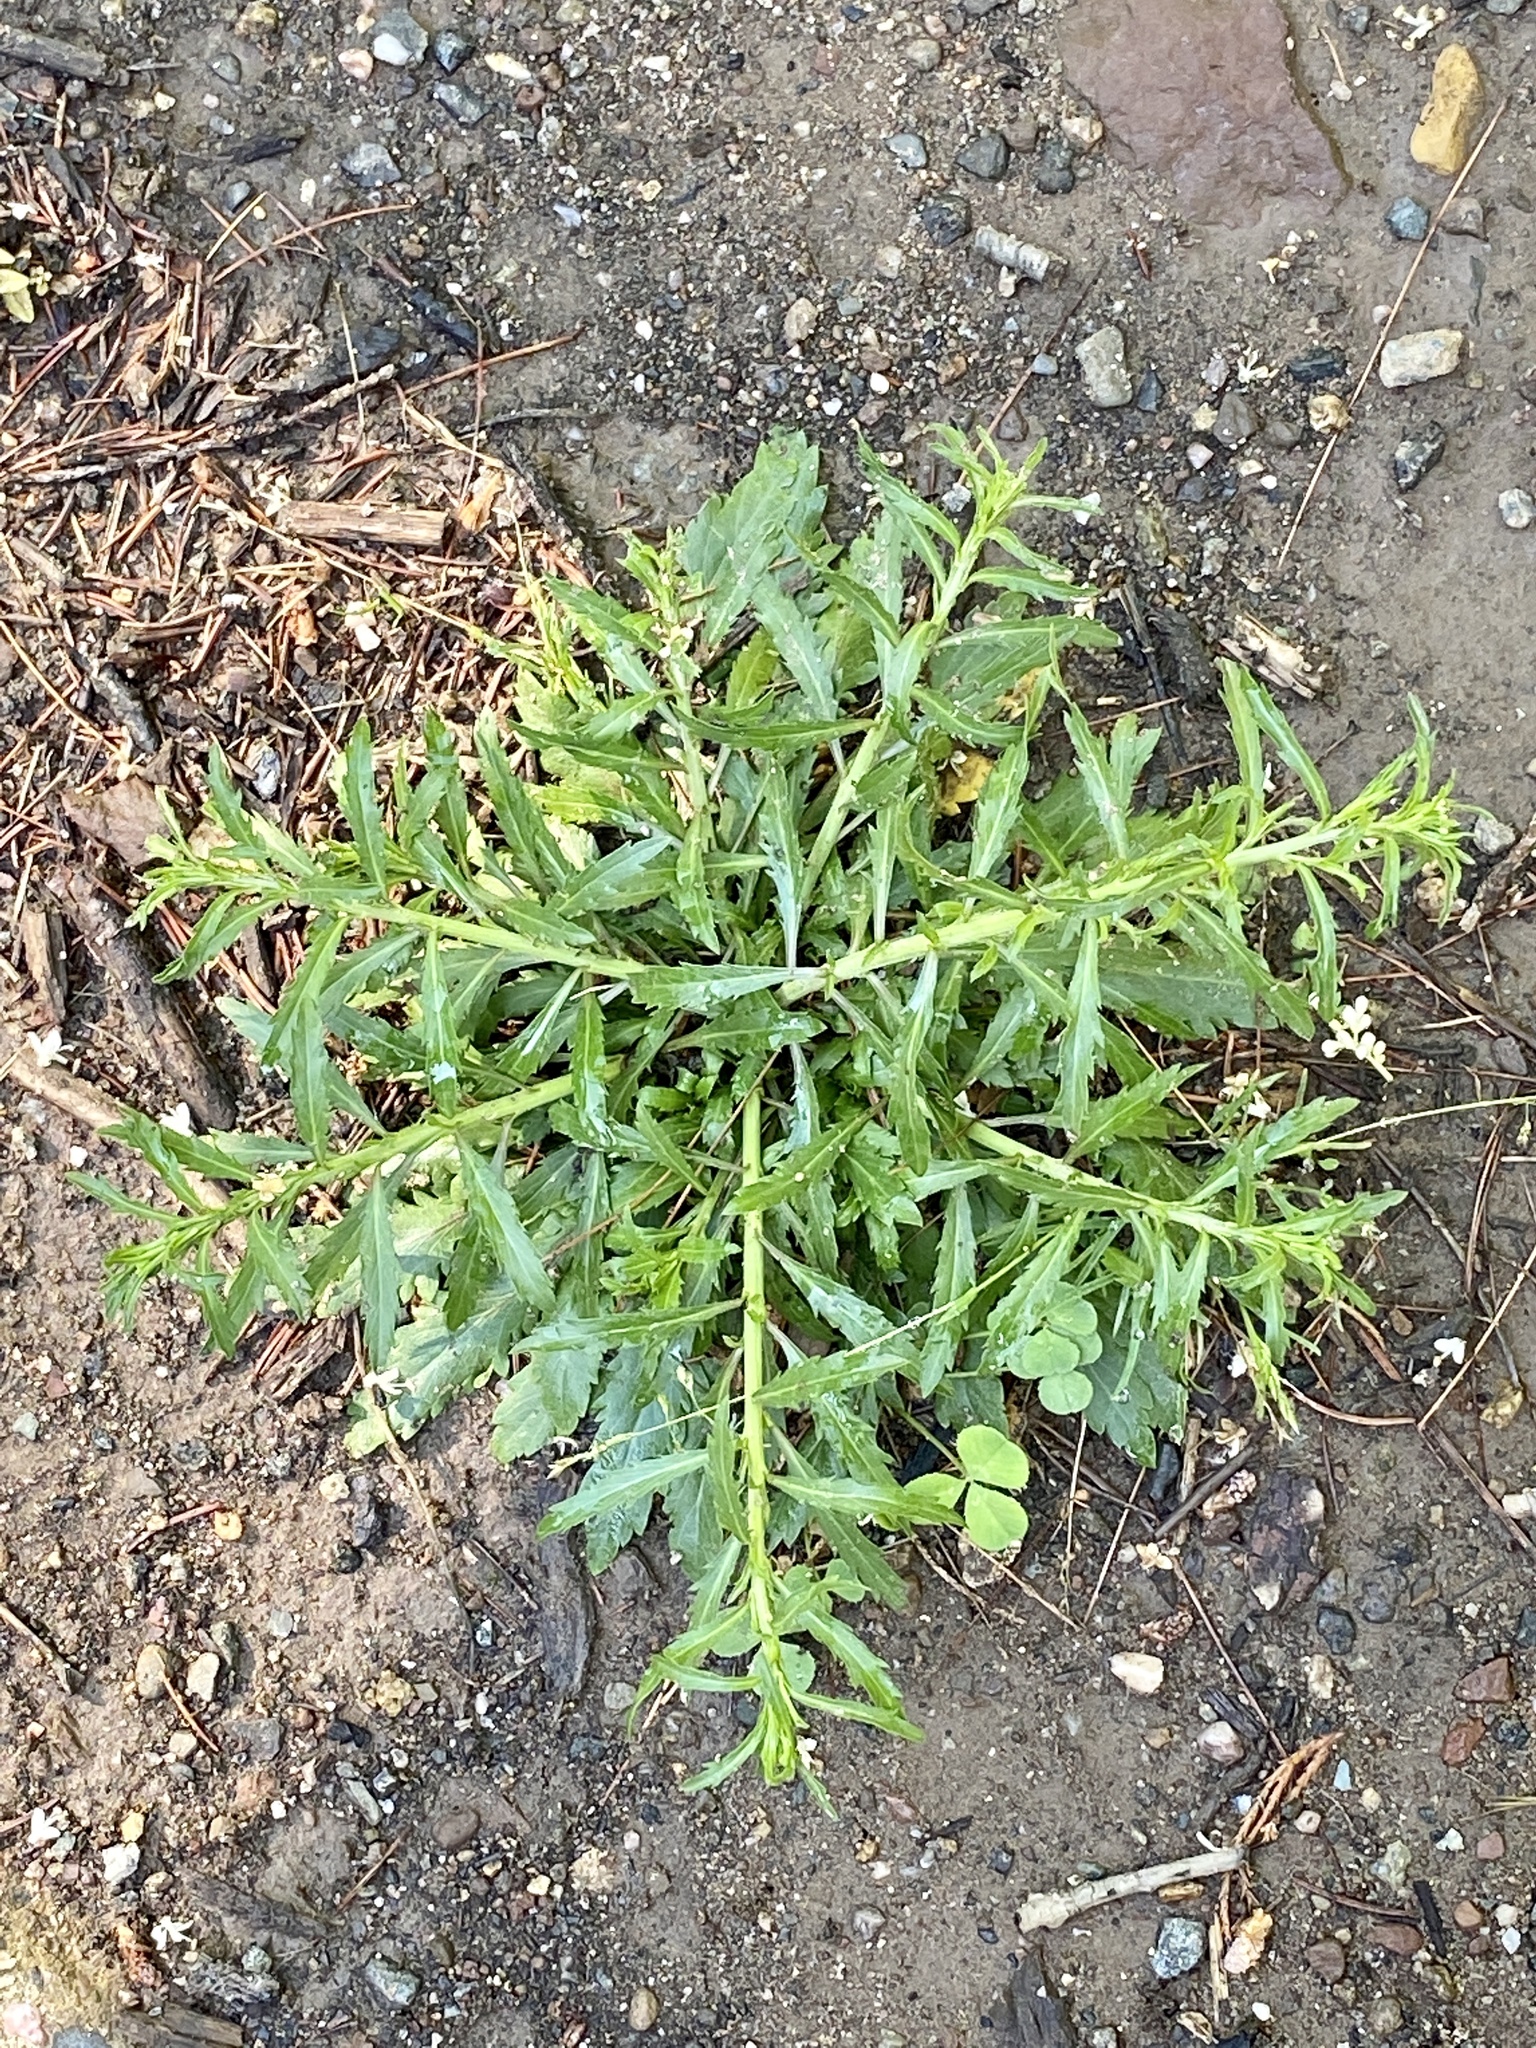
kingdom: Plantae
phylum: Tracheophyta
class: Magnoliopsida
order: Brassicales
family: Brassicaceae
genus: Lepidium
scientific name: Lepidium virginicum
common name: Least pepperwort
